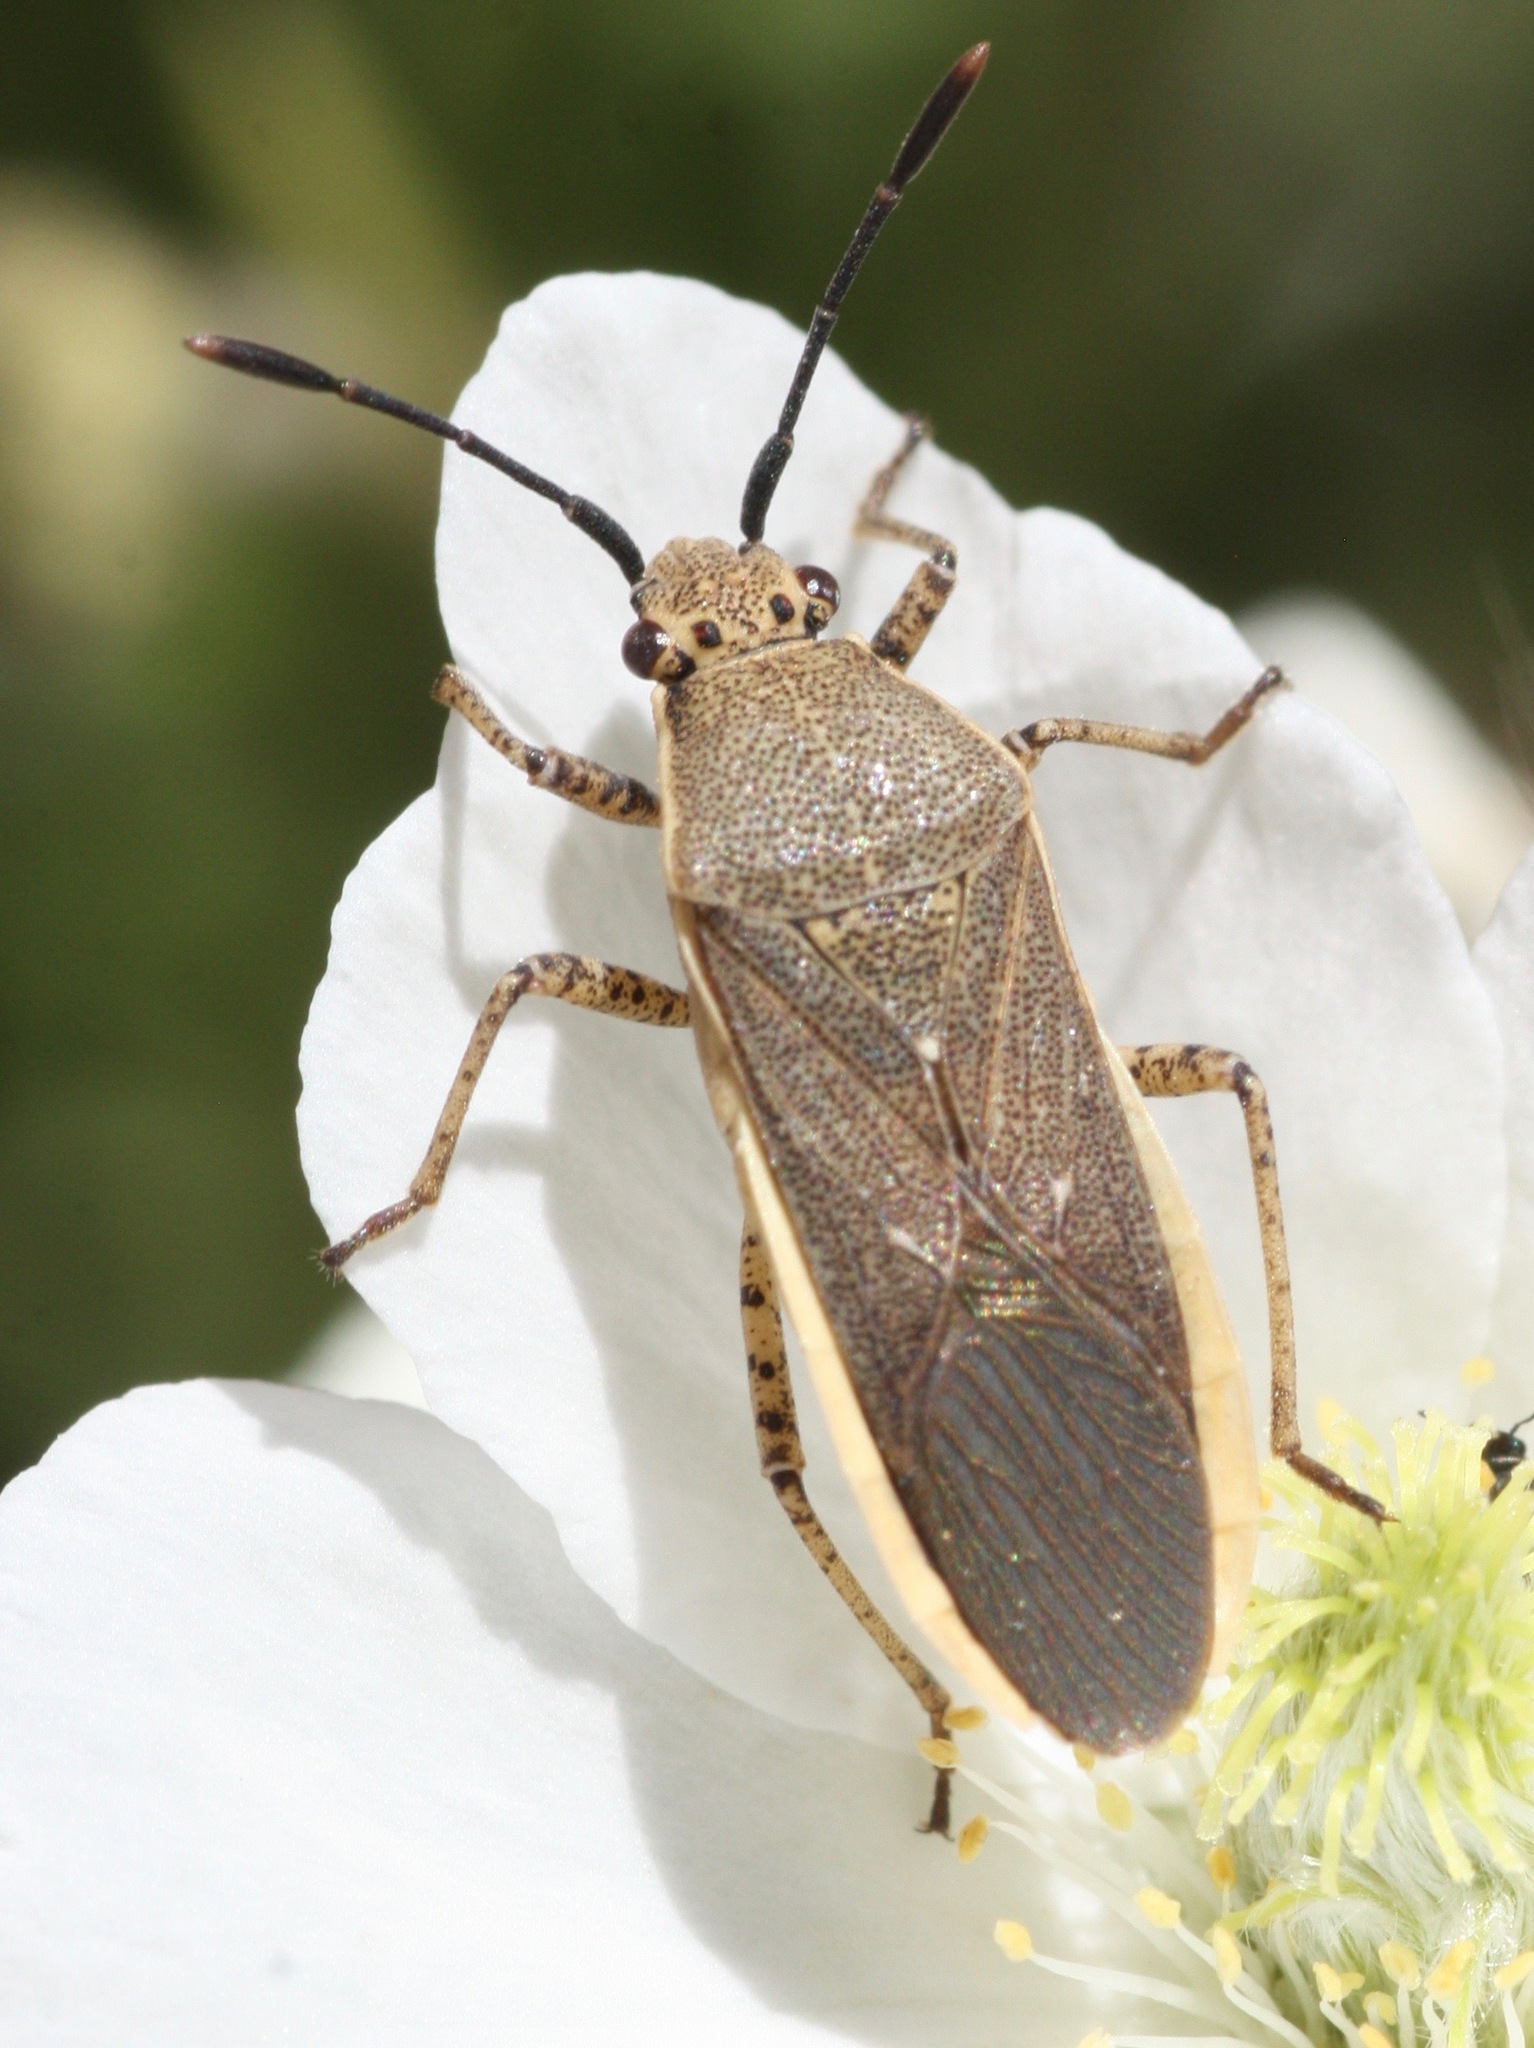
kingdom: Animalia
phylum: Arthropoda
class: Insecta
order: Hemiptera
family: Coreidae
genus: Catorhintha
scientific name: Catorhintha selector
